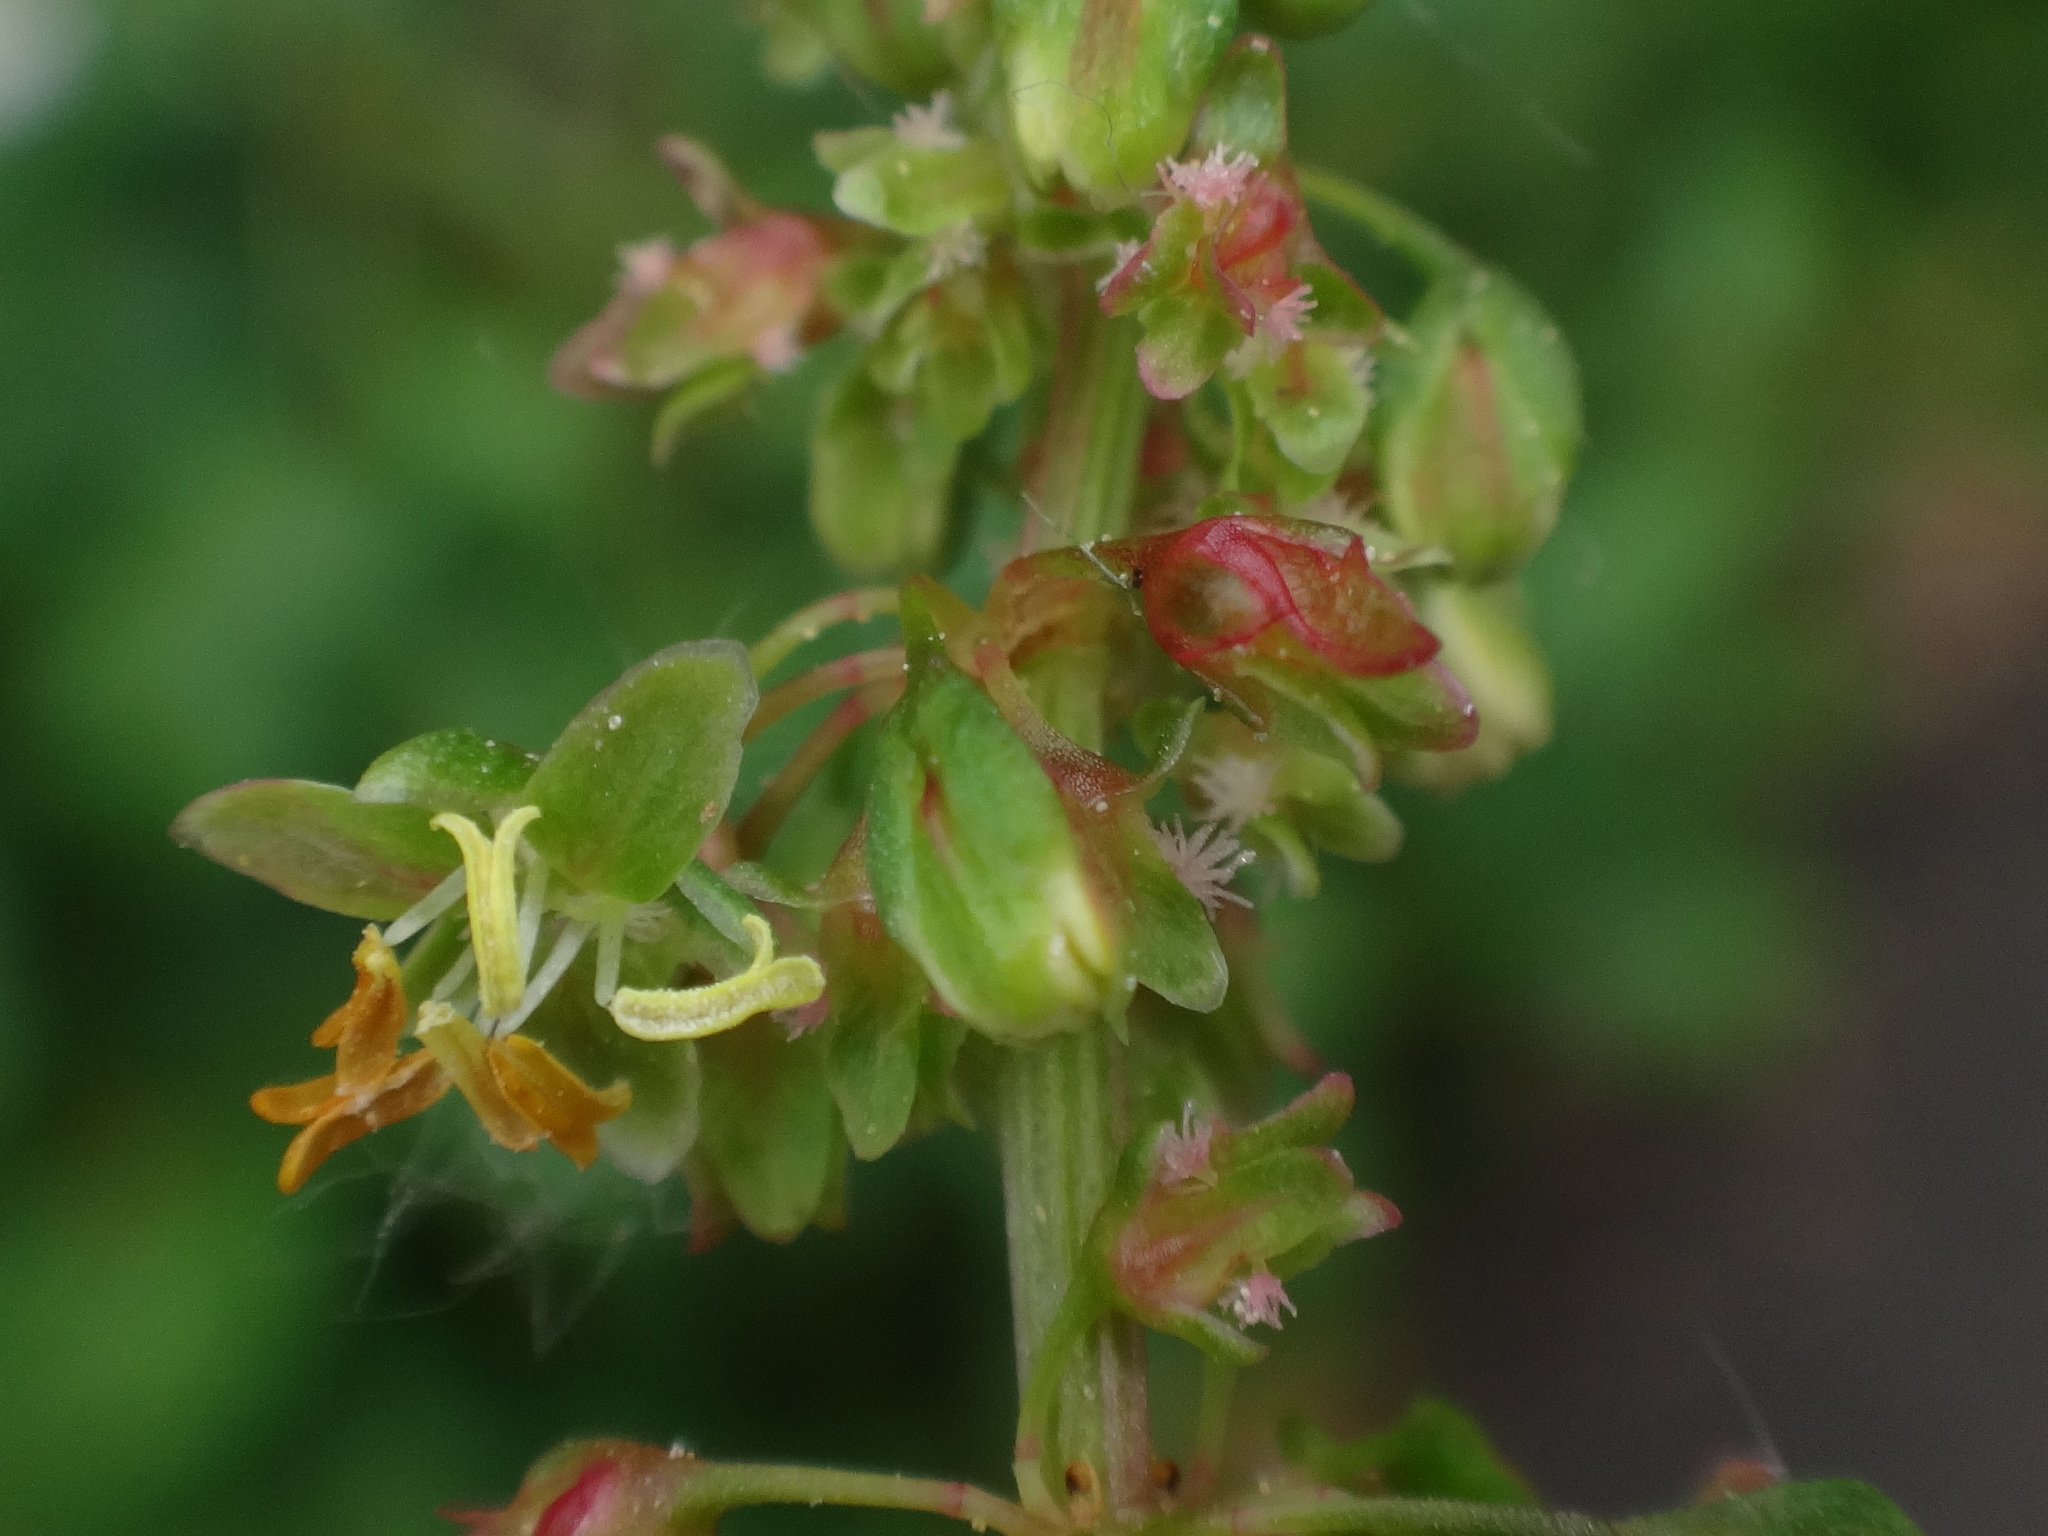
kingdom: Plantae
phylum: Tracheophyta
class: Magnoliopsida
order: Caryophyllales
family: Polygonaceae
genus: Rumex
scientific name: Rumex obtusifolius
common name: Bitter dock
